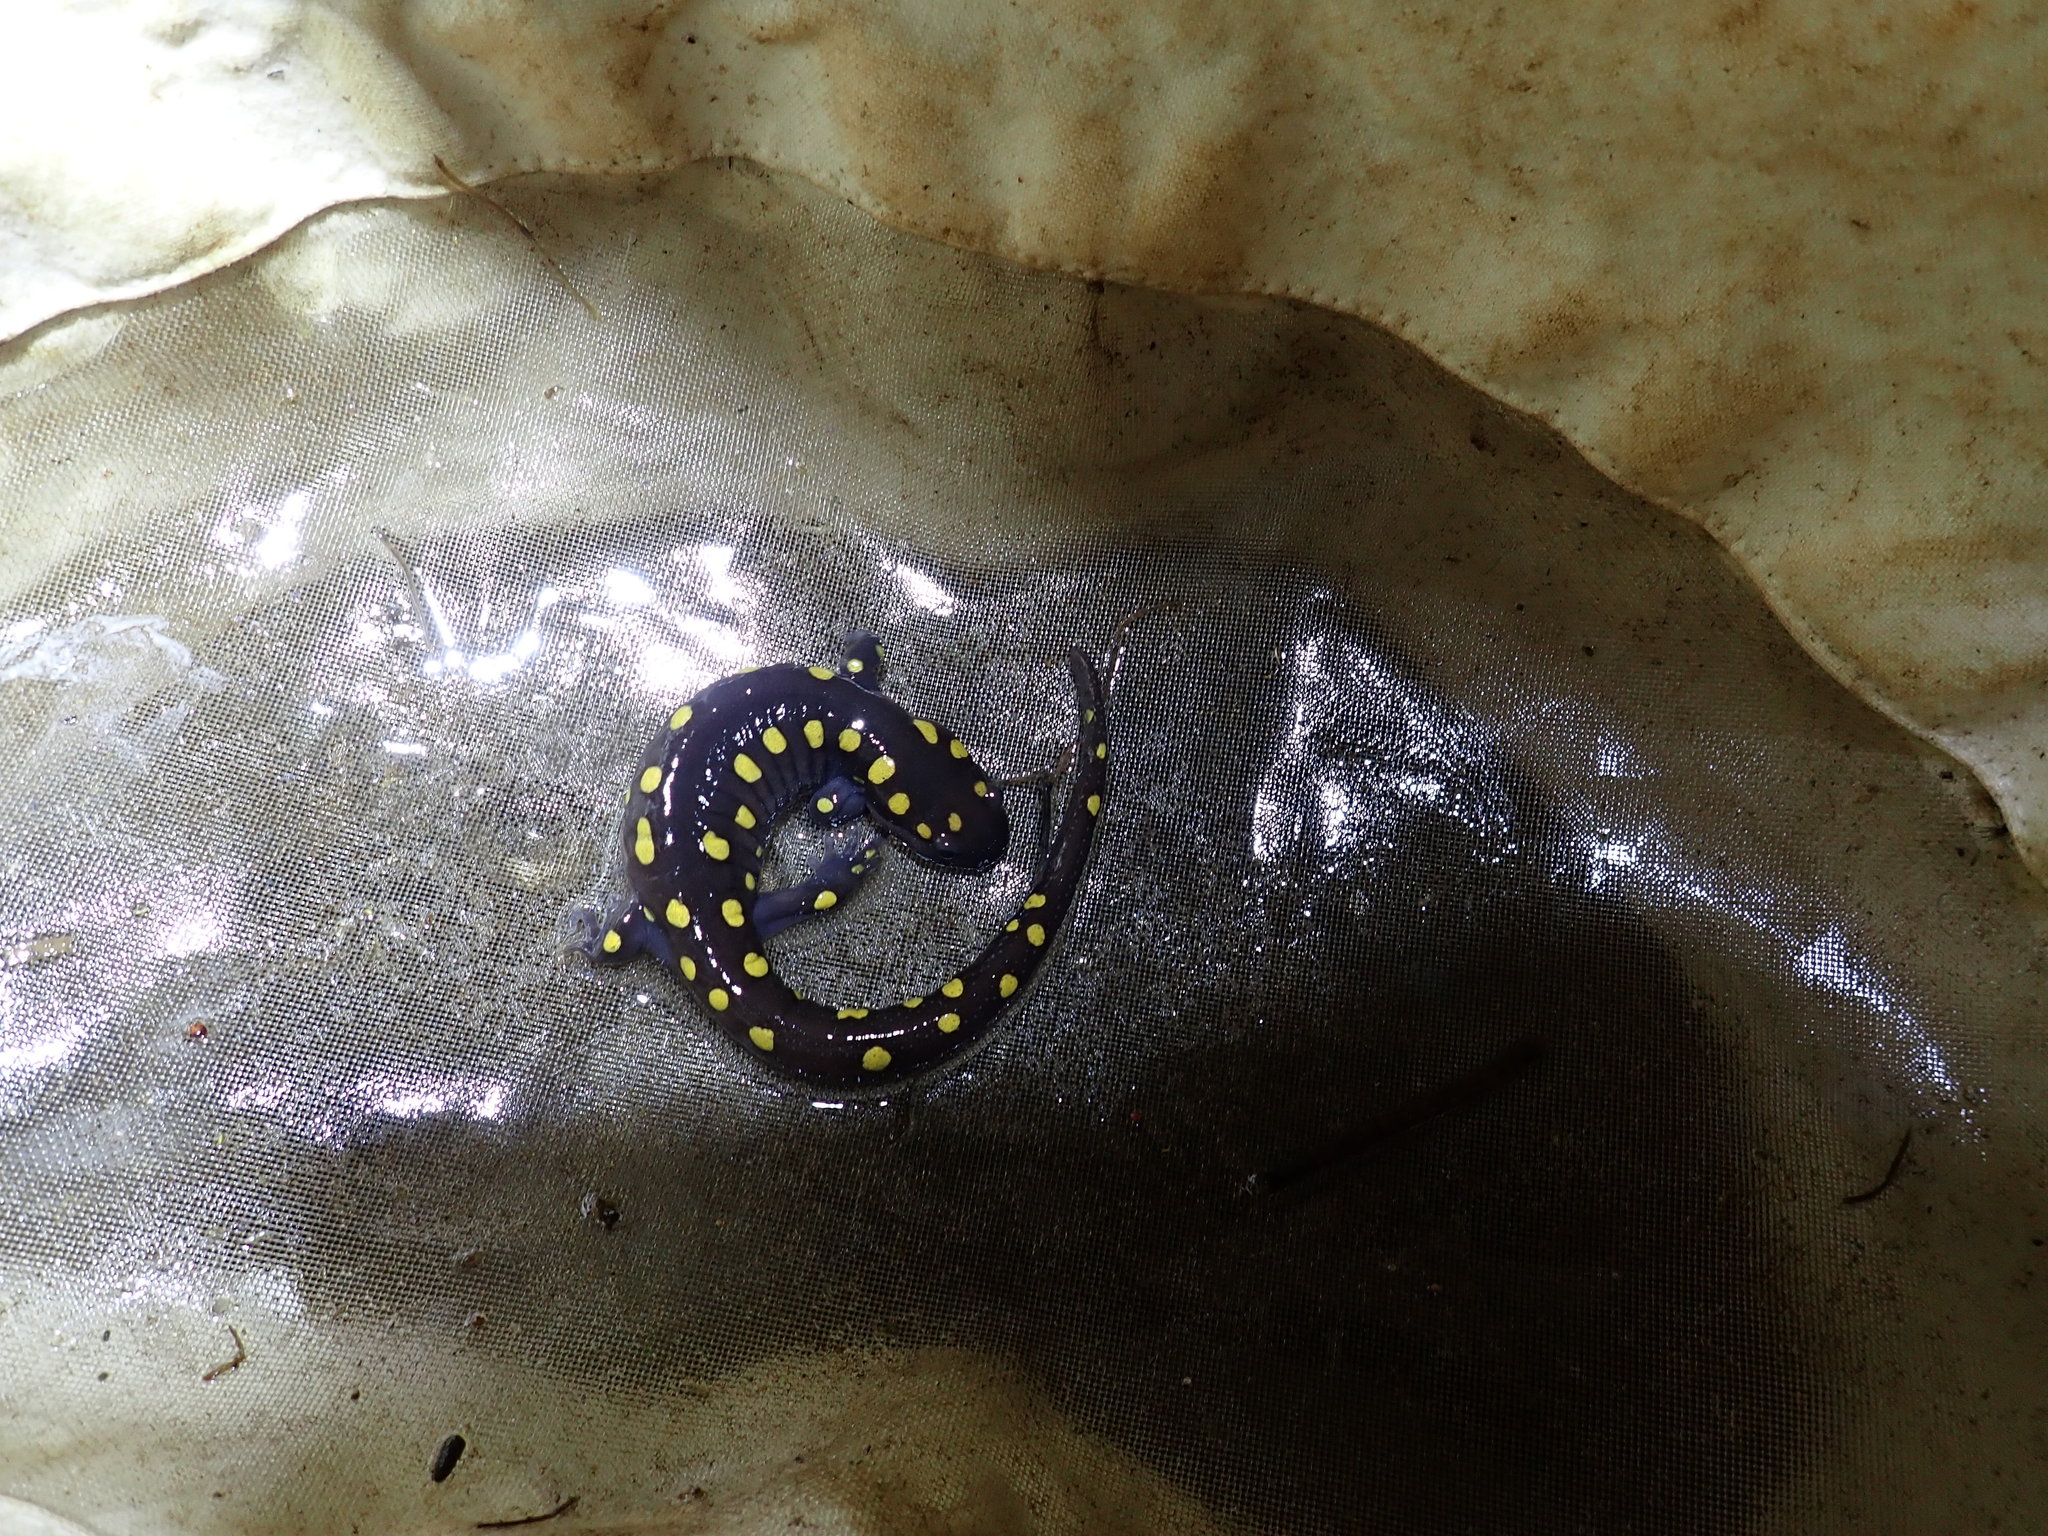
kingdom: Animalia
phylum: Chordata
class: Amphibia
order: Caudata
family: Ambystomatidae
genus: Ambystoma
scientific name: Ambystoma maculatum
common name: Spotted salamander
